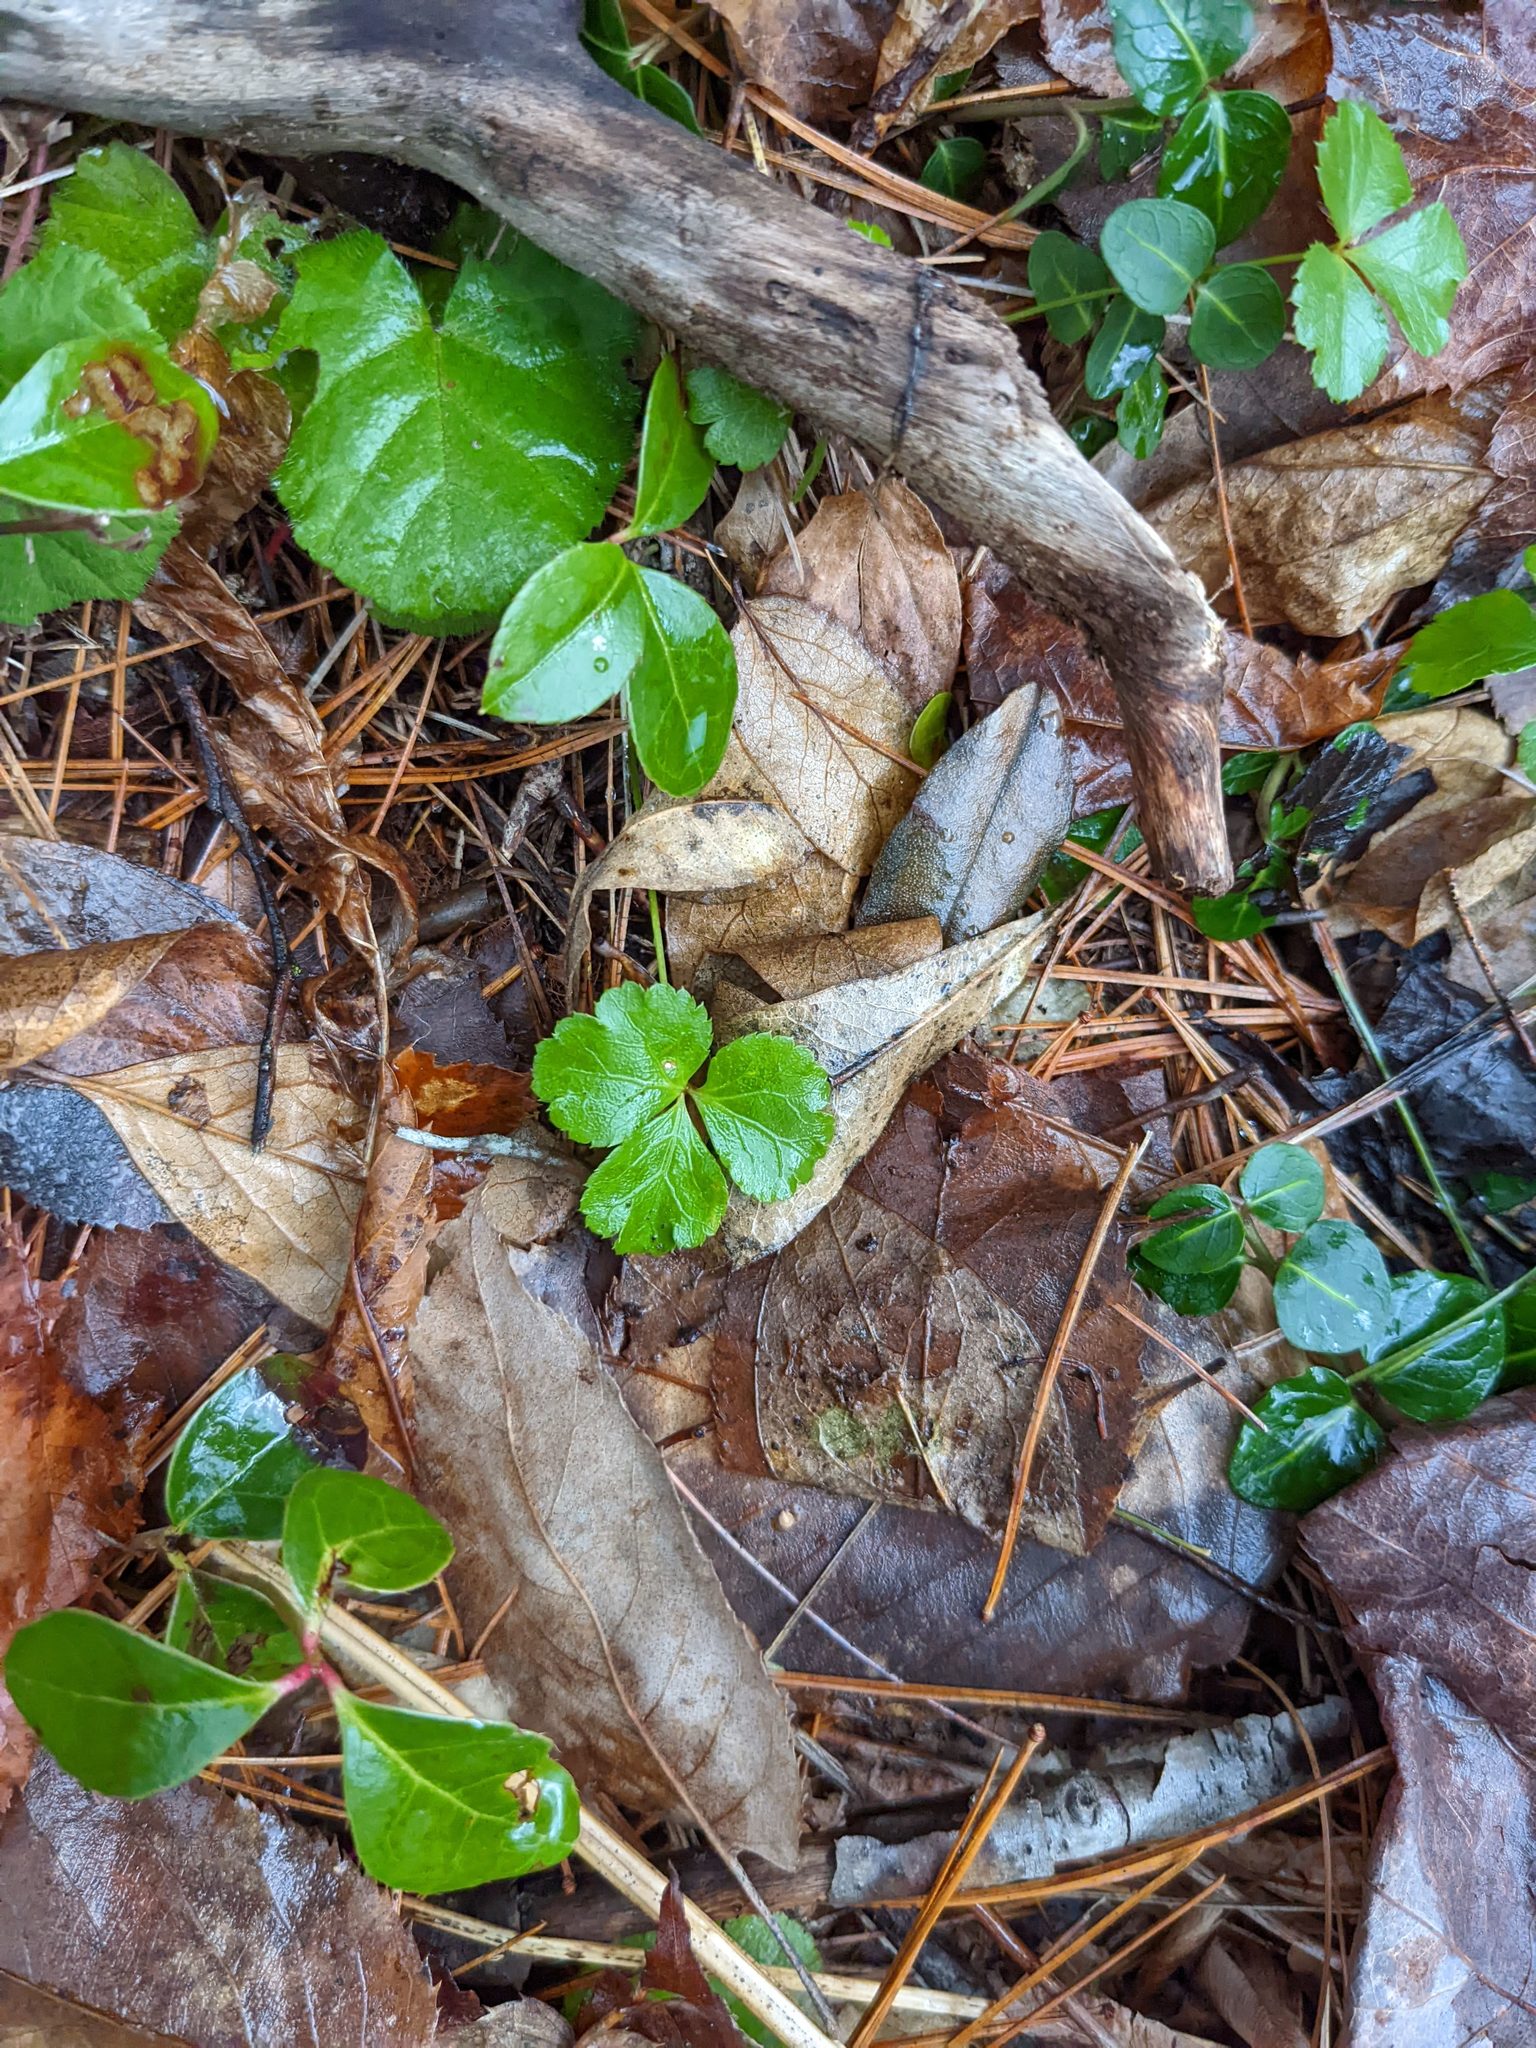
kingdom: Plantae
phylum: Tracheophyta
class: Magnoliopsida
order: Ranunculales
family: Ranunculaceae
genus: Coptis
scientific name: Coptis trifolia
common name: Canker-root
